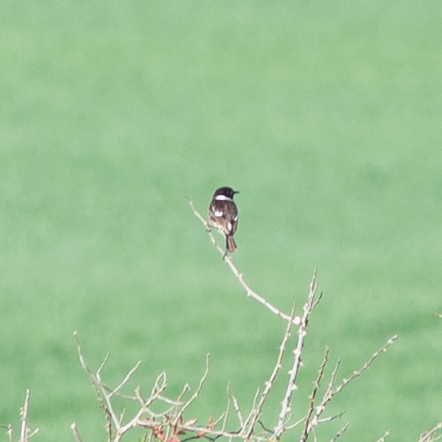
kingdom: Animalia
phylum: Chordata
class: Aves
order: Passeriformes
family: Muscicapidae
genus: Saxicola
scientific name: Saxicola rubicola
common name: European stonechat
